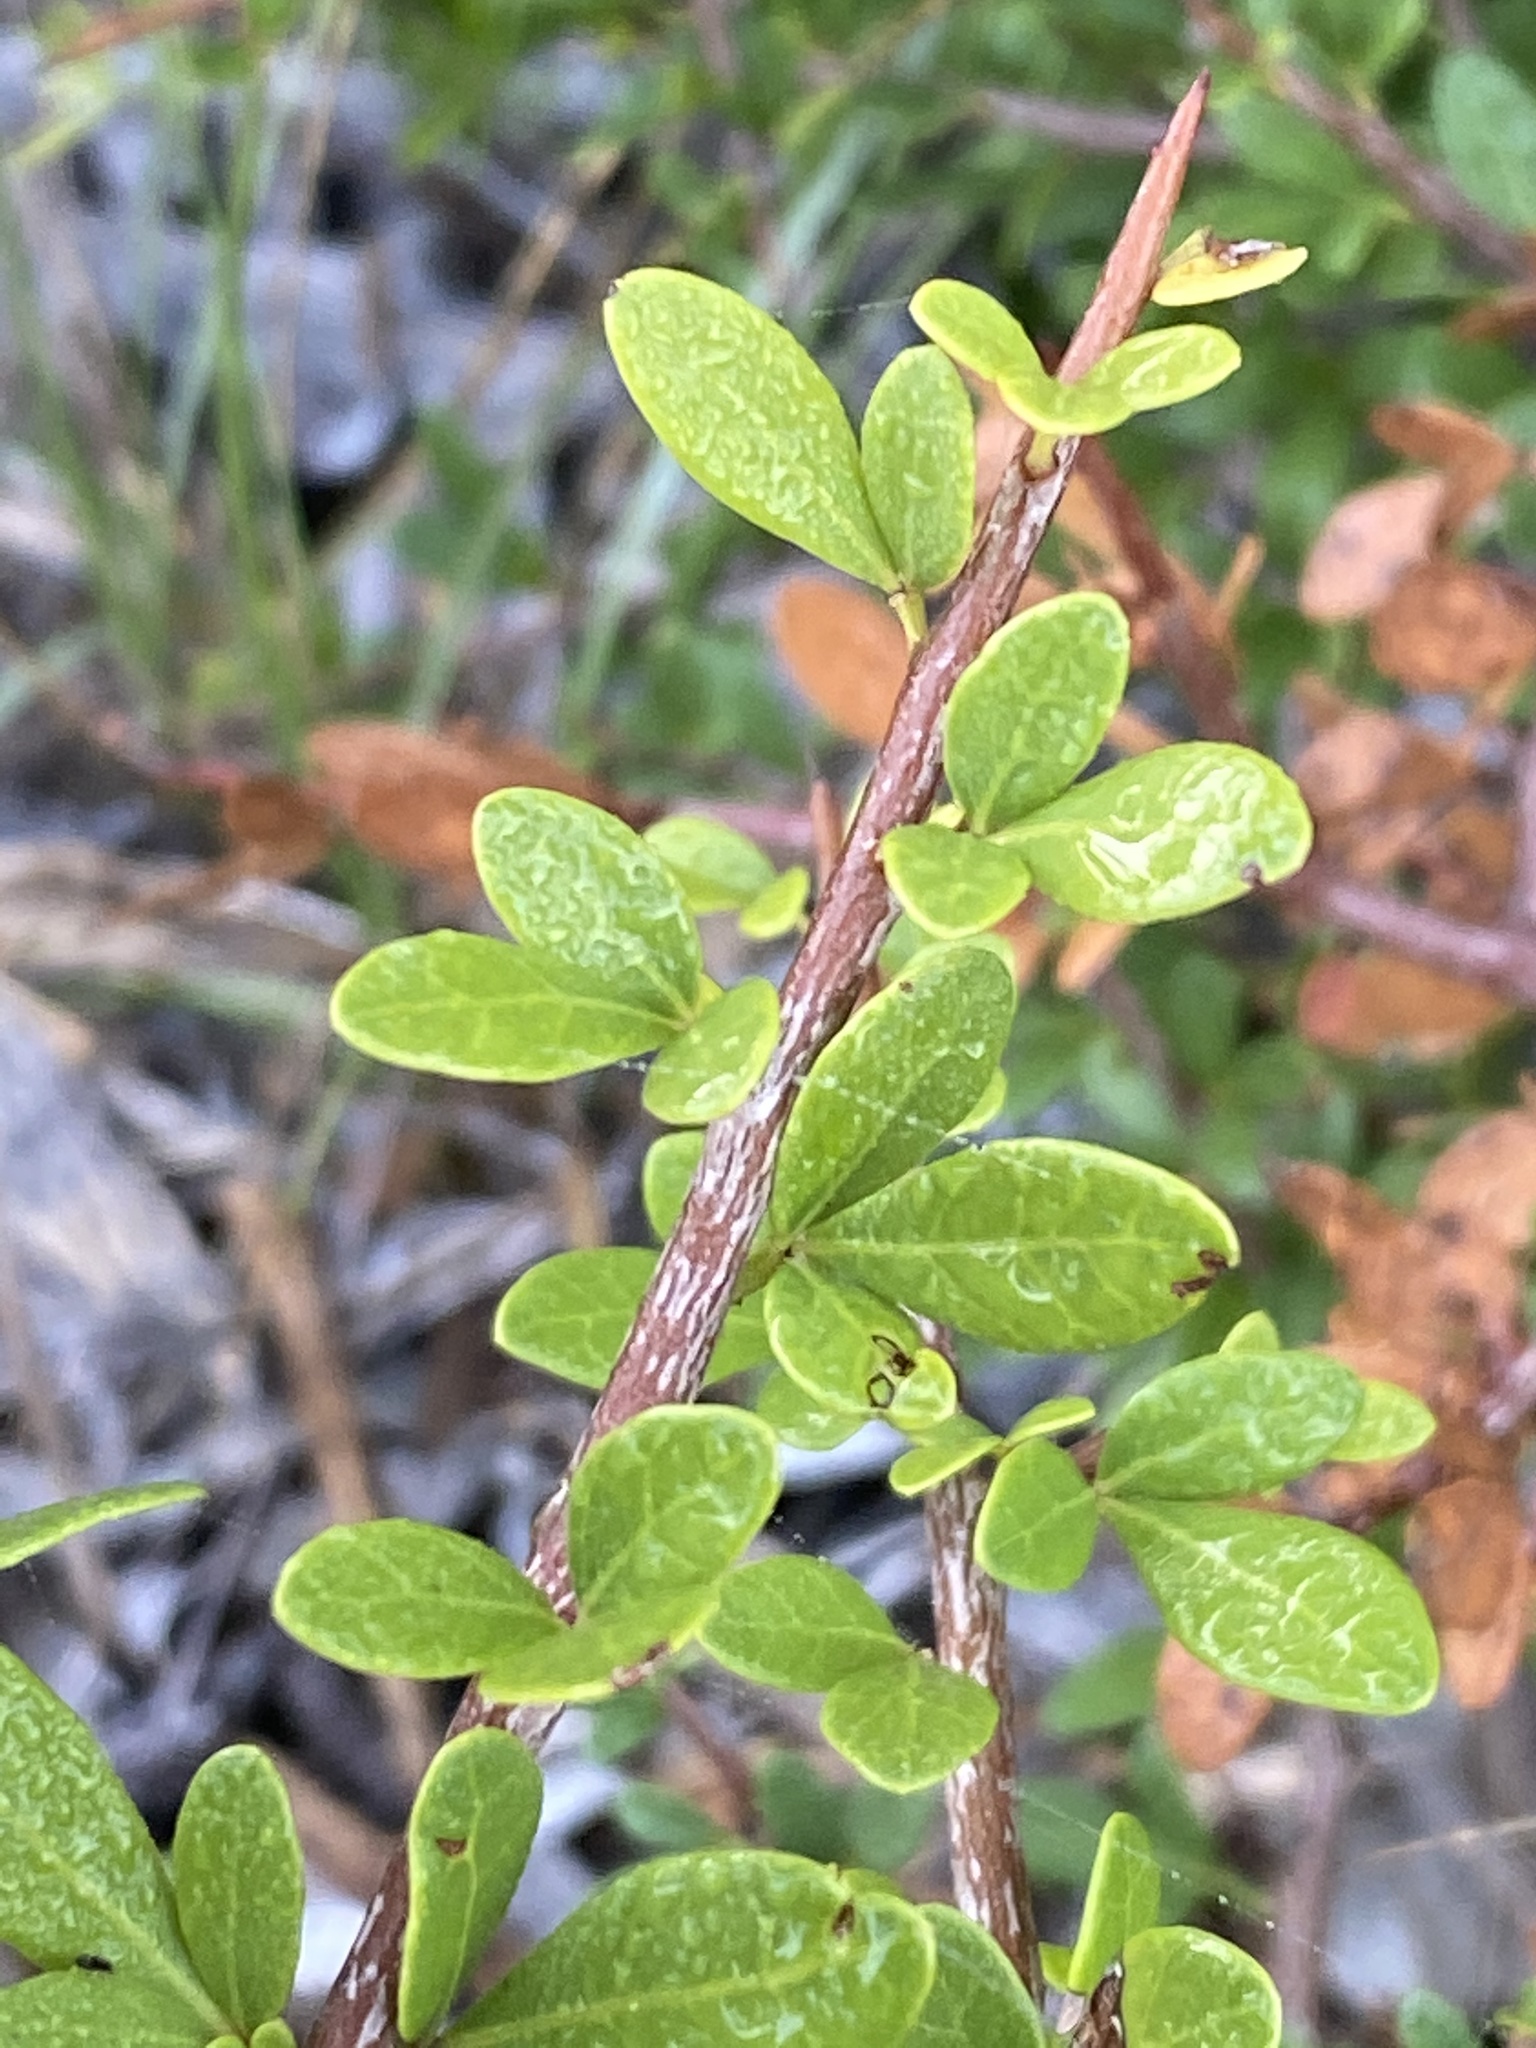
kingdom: Plantae
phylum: Tracheophyta
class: Magnoliopsida
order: Sapindales
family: Anacardiaceae
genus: Searsia
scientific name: Searsia pterota
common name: Winged currant
